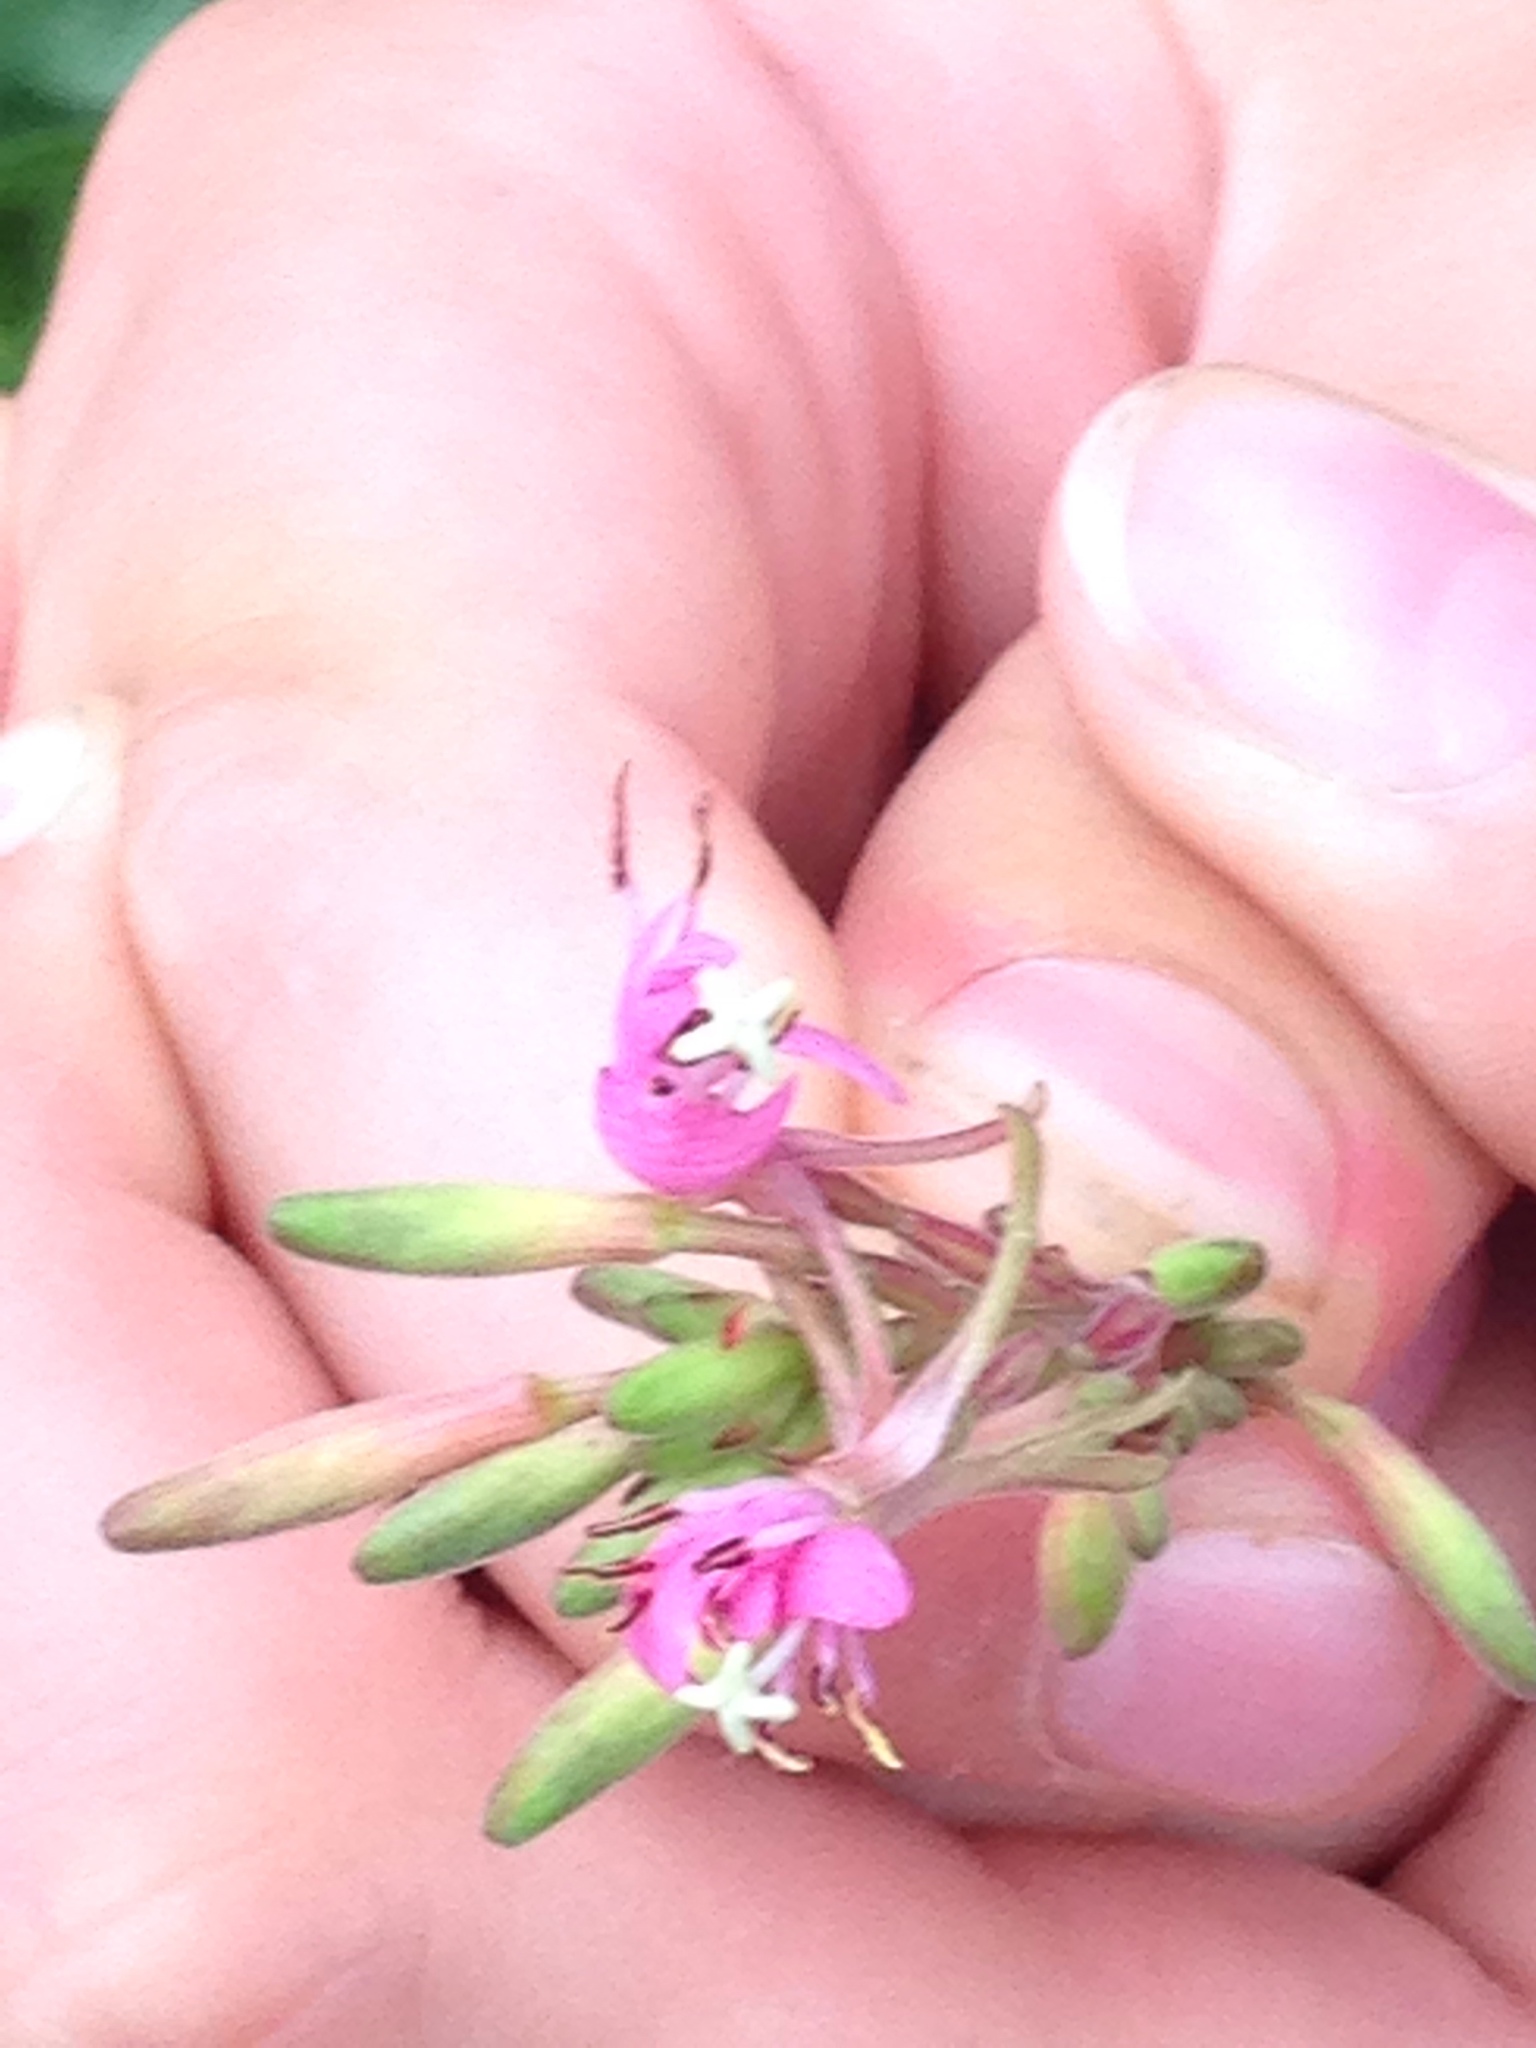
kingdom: Plantae
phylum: Tracheophyta
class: Magnoliopsida
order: Myrtales
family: Onagraceae
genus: Oenothera
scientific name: Oenothera gaura
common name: Biennial beeblossom
